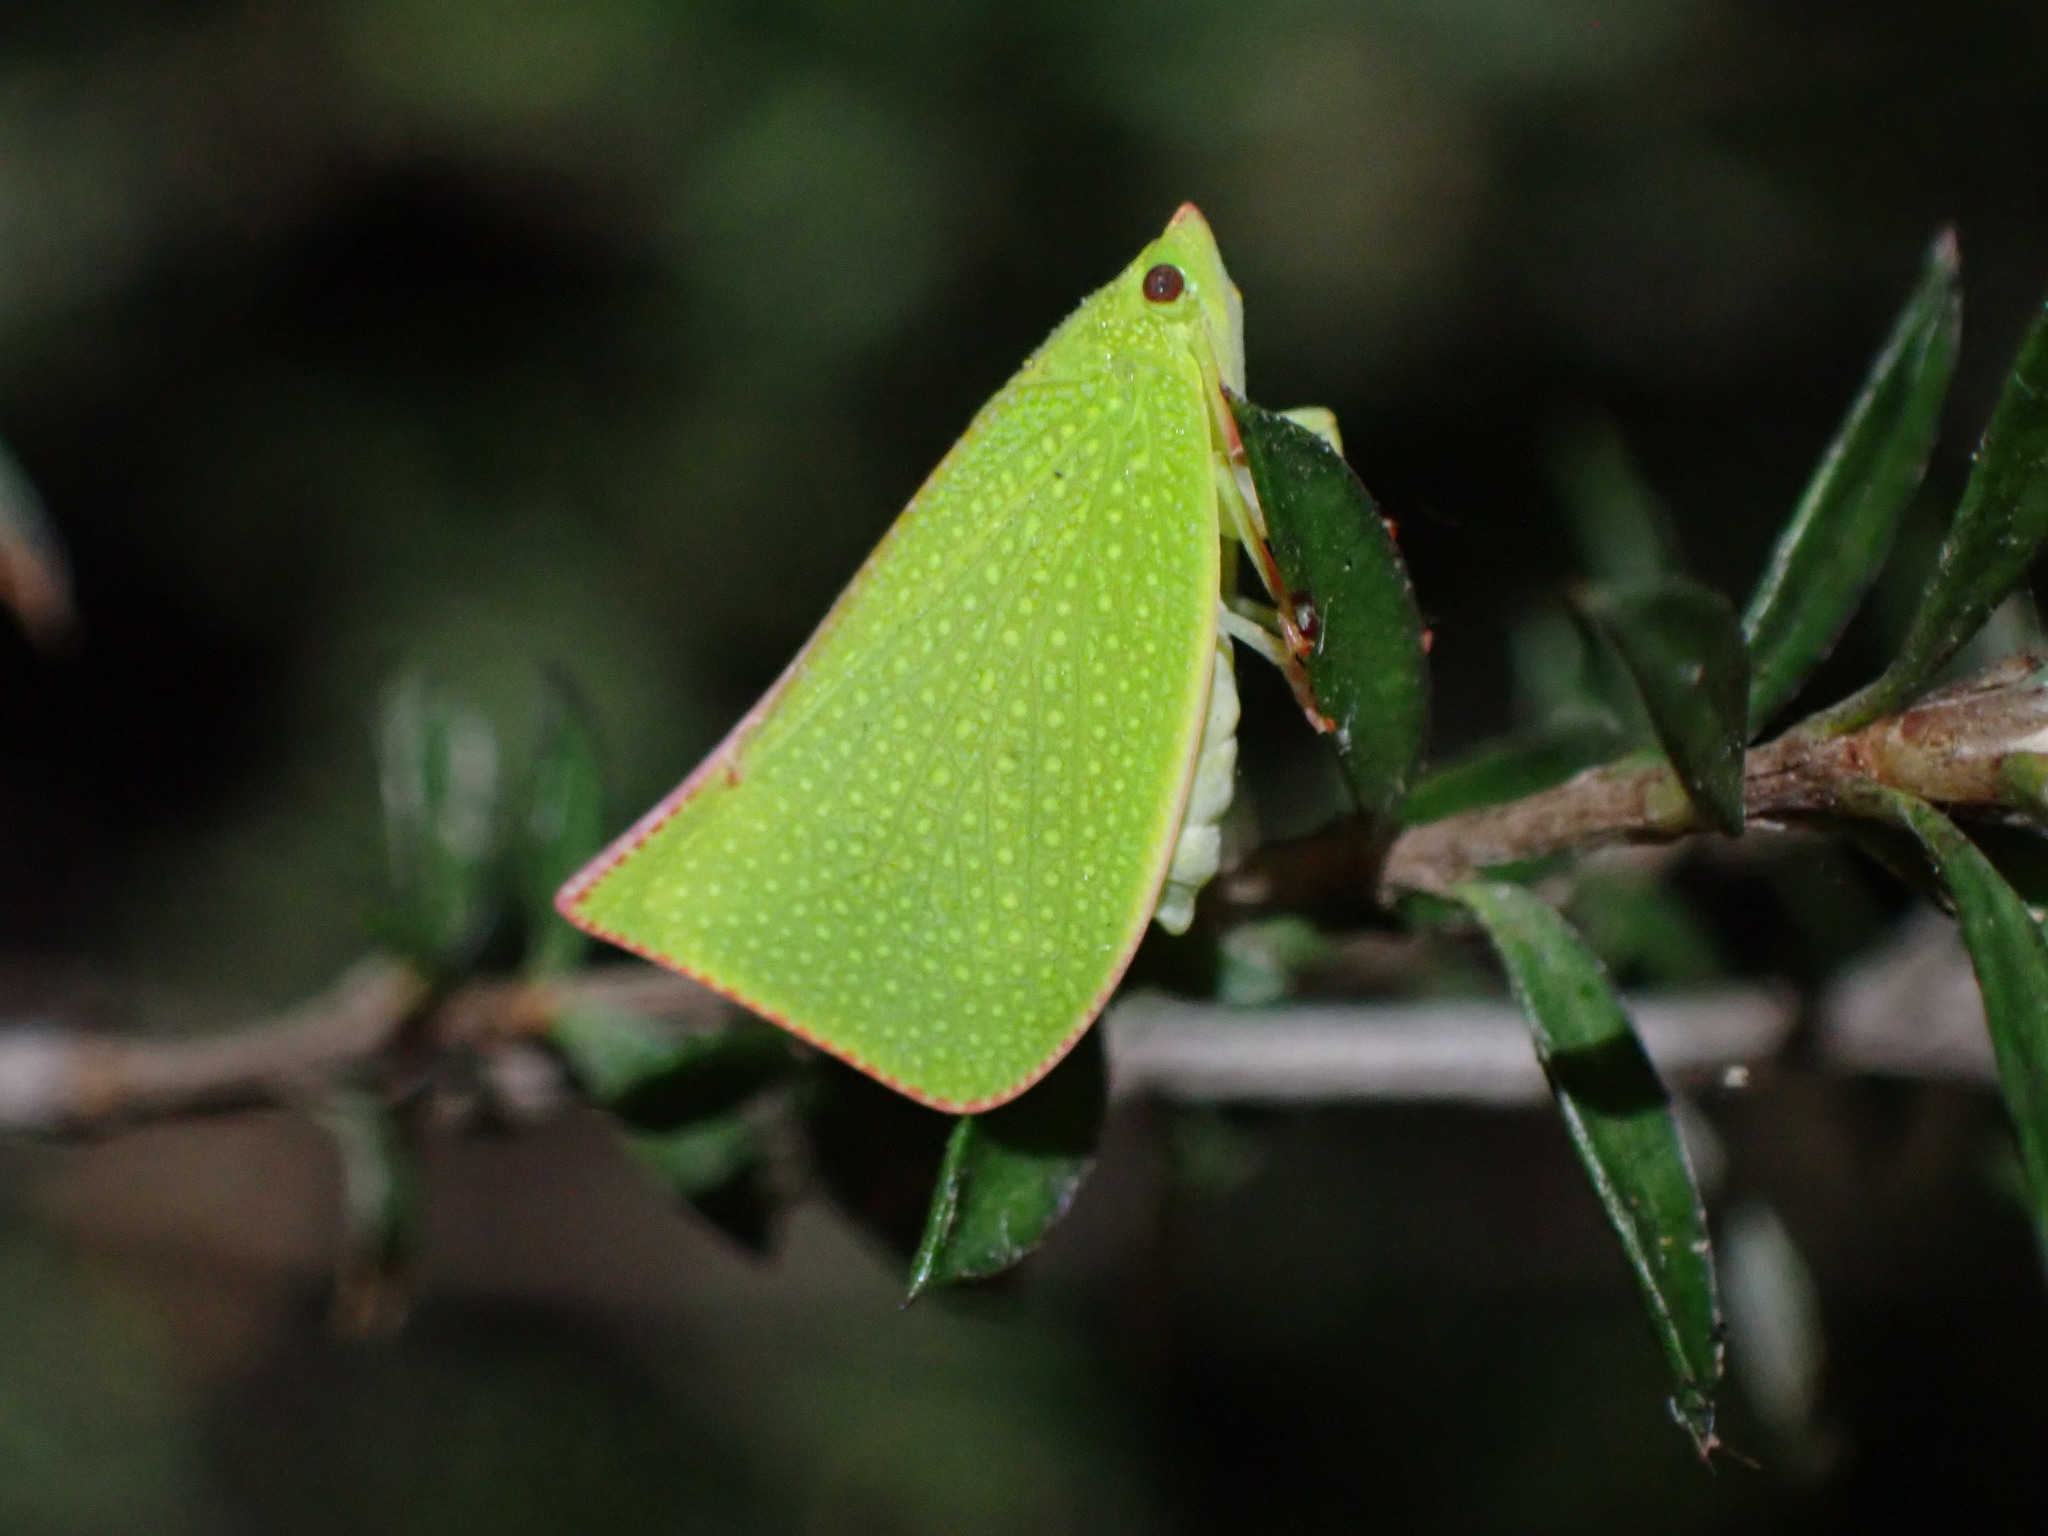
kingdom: Animalia
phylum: Arthropoda
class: Insecta
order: Hemiptera
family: Flatidae
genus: Siphanta
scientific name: Siphanta acuta
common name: Torpedo bug
